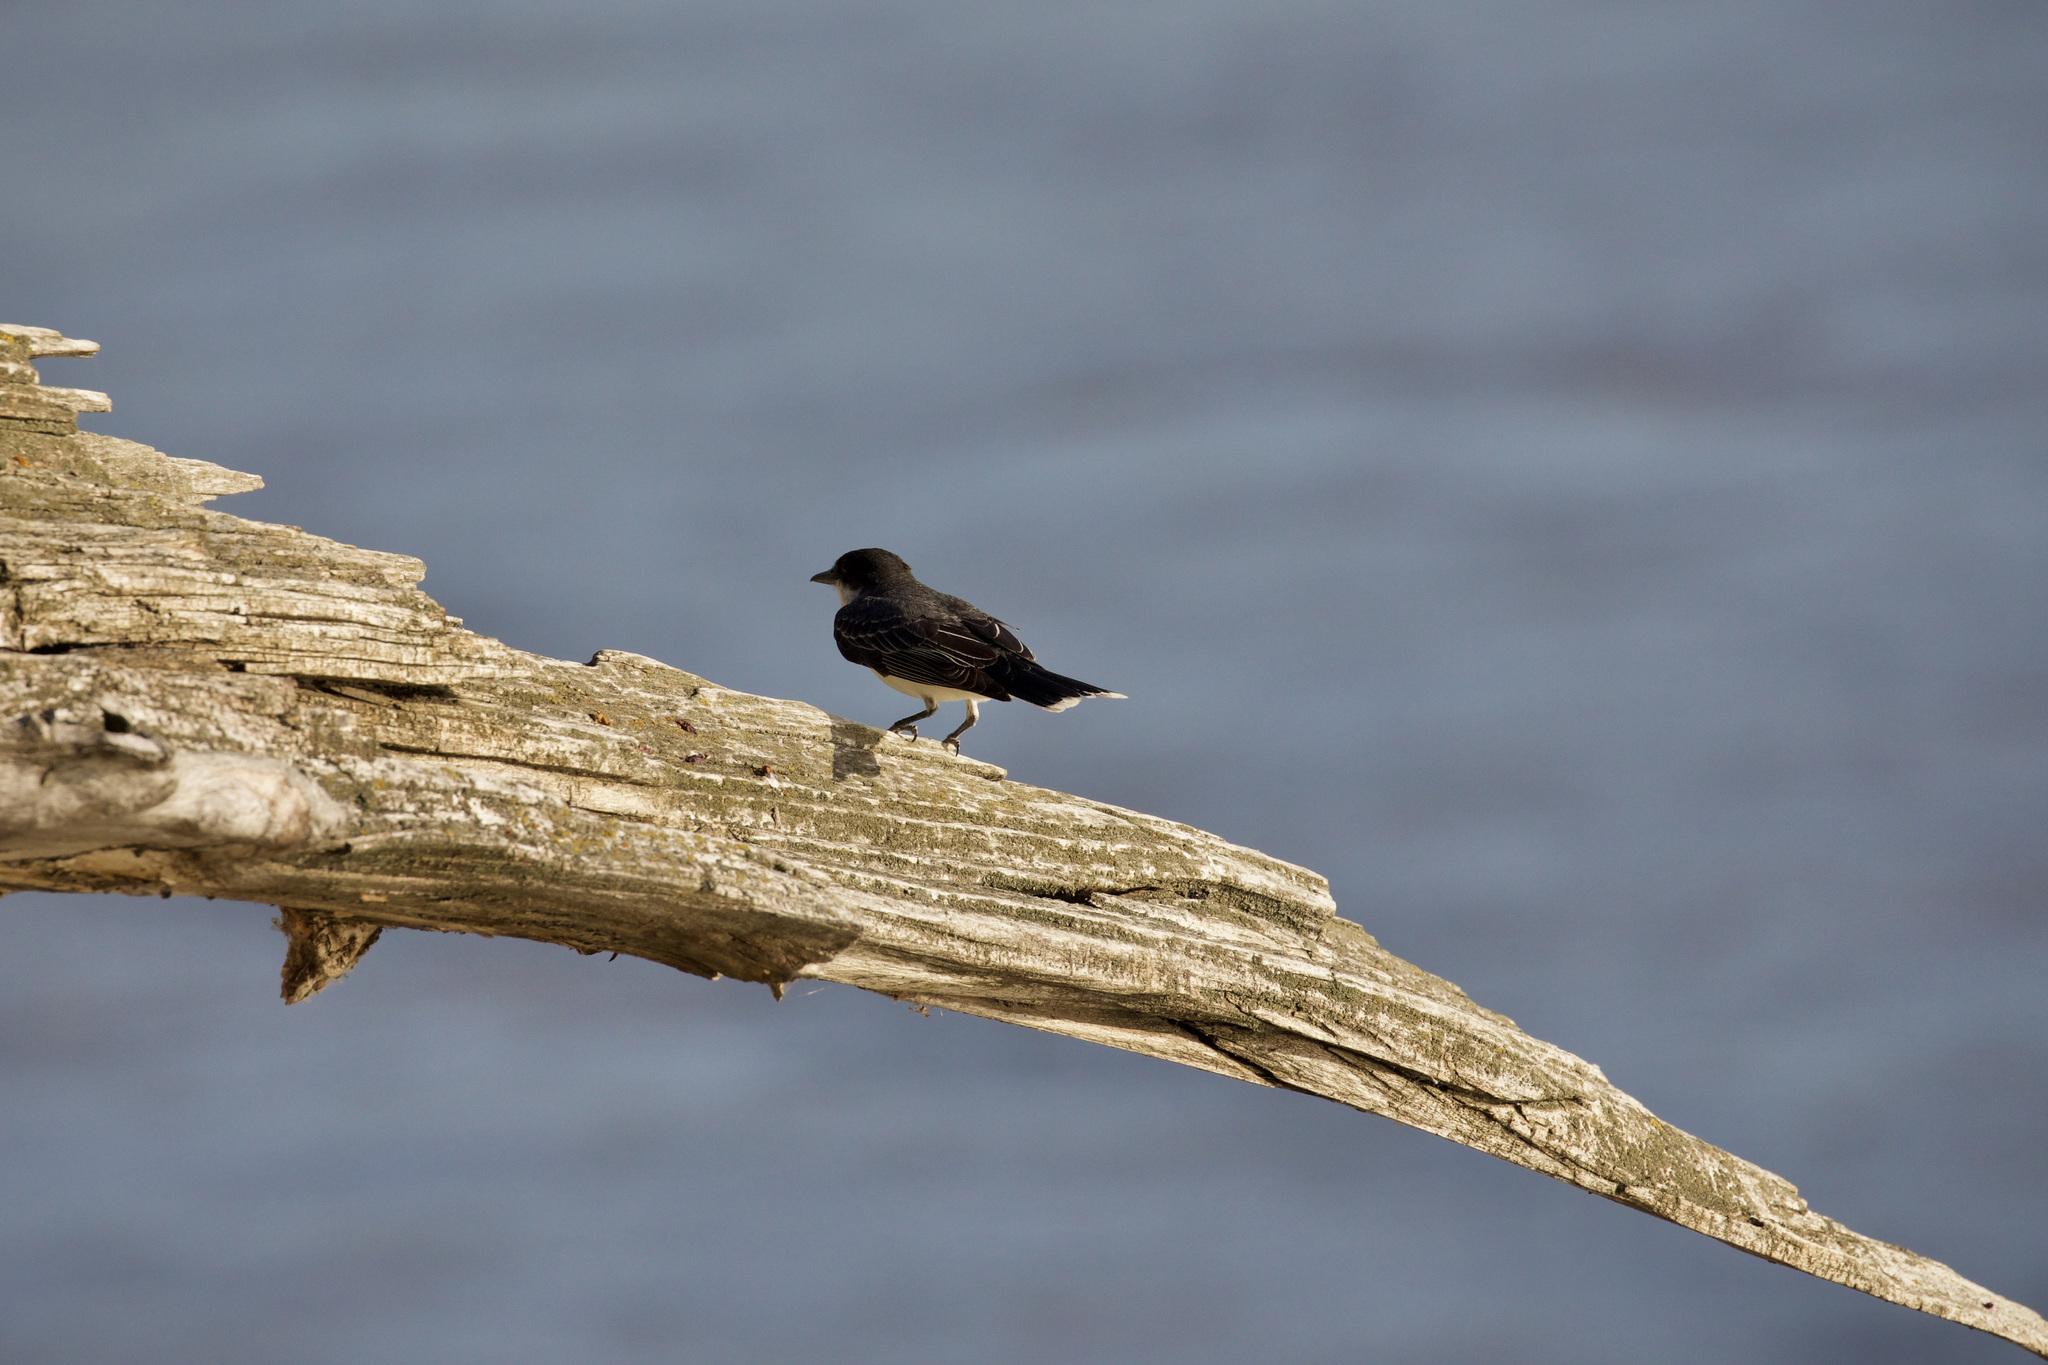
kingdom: Animalia
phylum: Chordata
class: Aves
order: Passeriformes
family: Tyrannidae
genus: Tyrannus
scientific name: Tyrannus tyrannus
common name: Eastern kingbird
